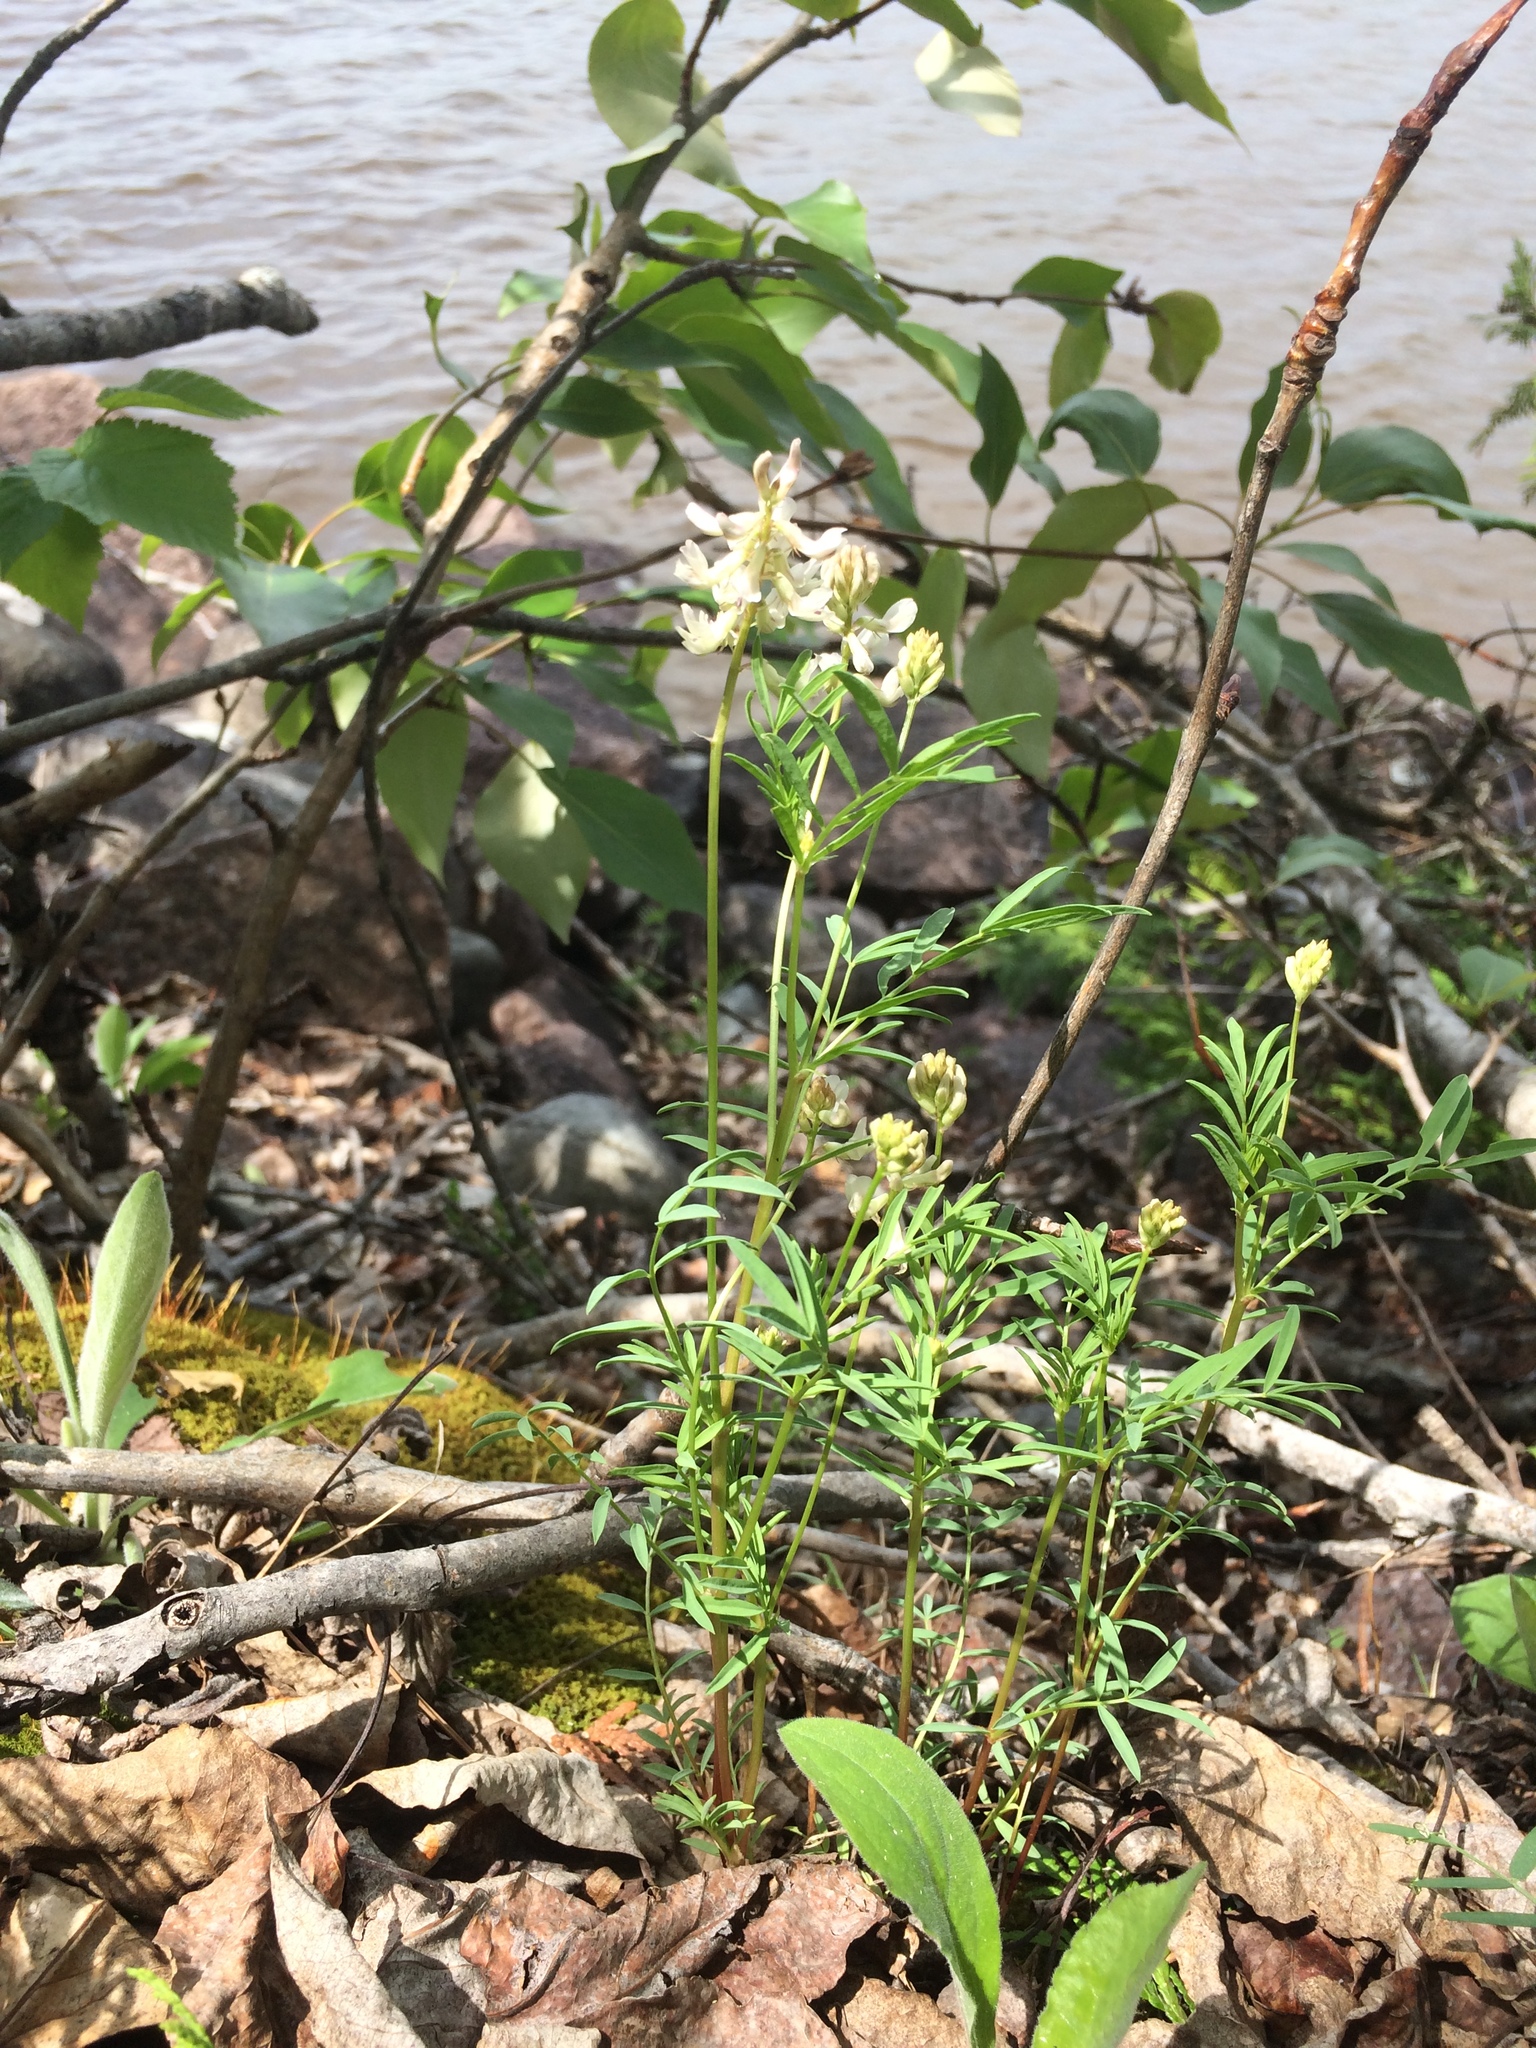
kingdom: Plantae
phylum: Tracheophyta
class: Magnoliopsida
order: Fabales
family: Fabaceae
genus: Astragalus
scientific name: Astragalus aboriginorum
